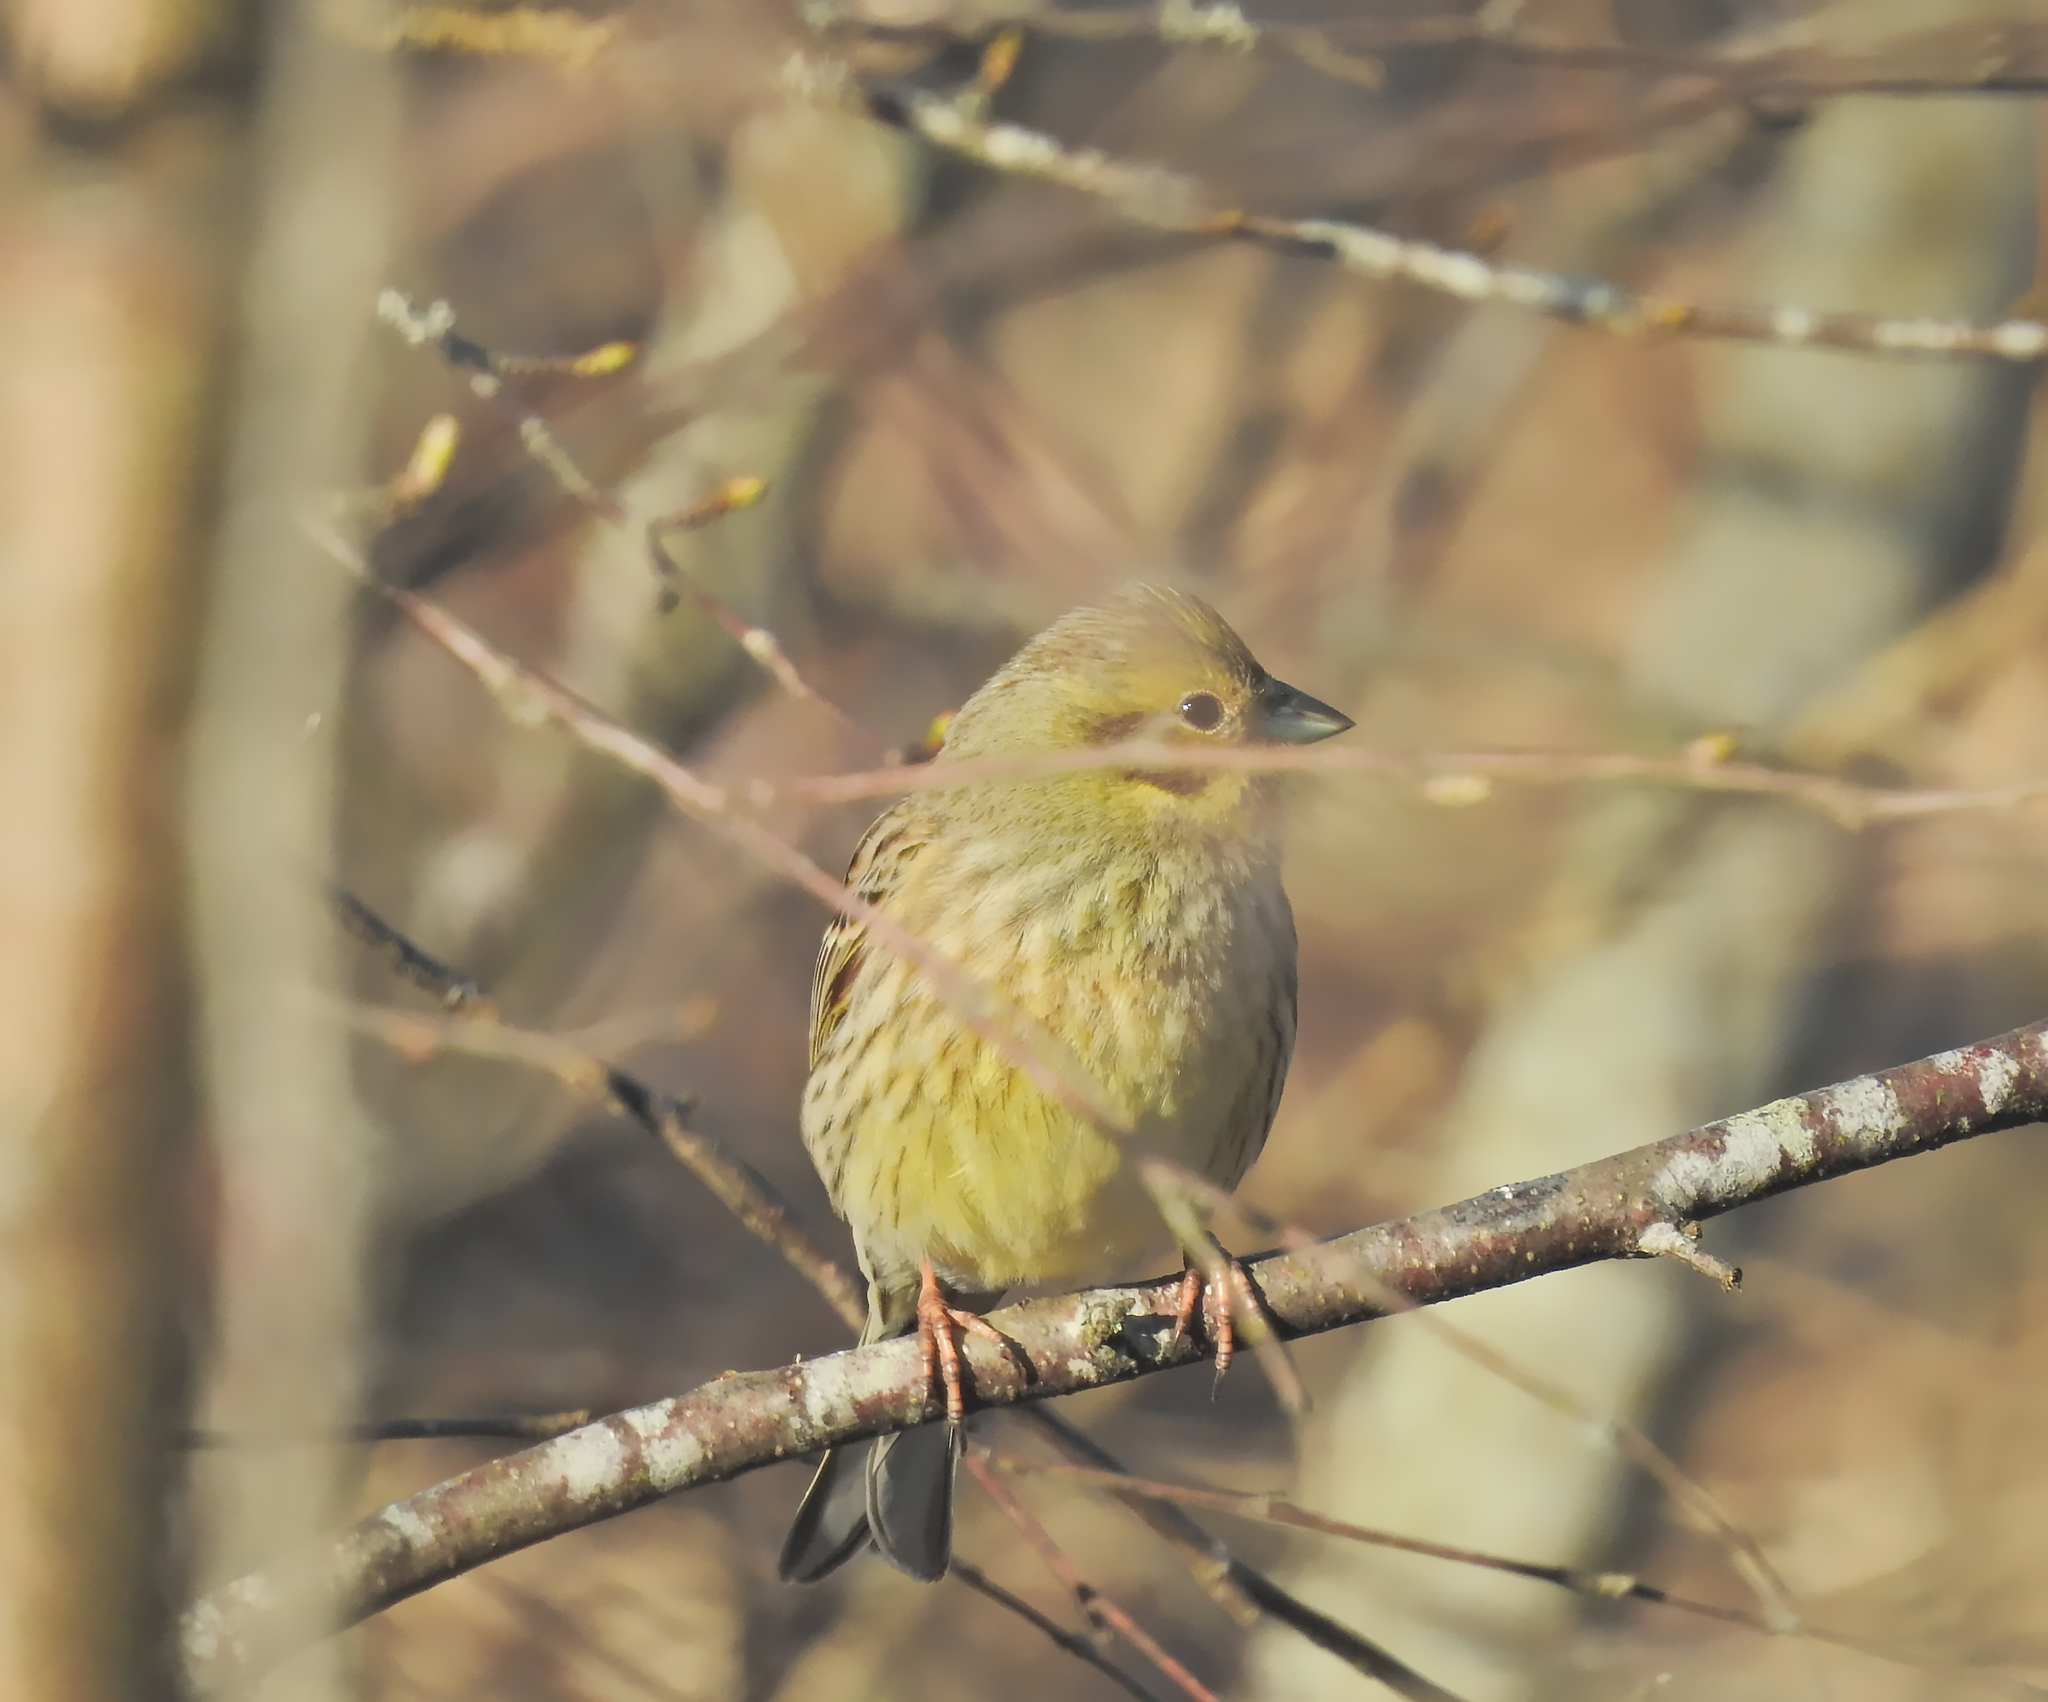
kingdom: Animalia
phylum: Chordata
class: Aves
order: Passeriformes
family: Emberizidae
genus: Emberiza
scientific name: Emberiza citrinella
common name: Yellowhammer
